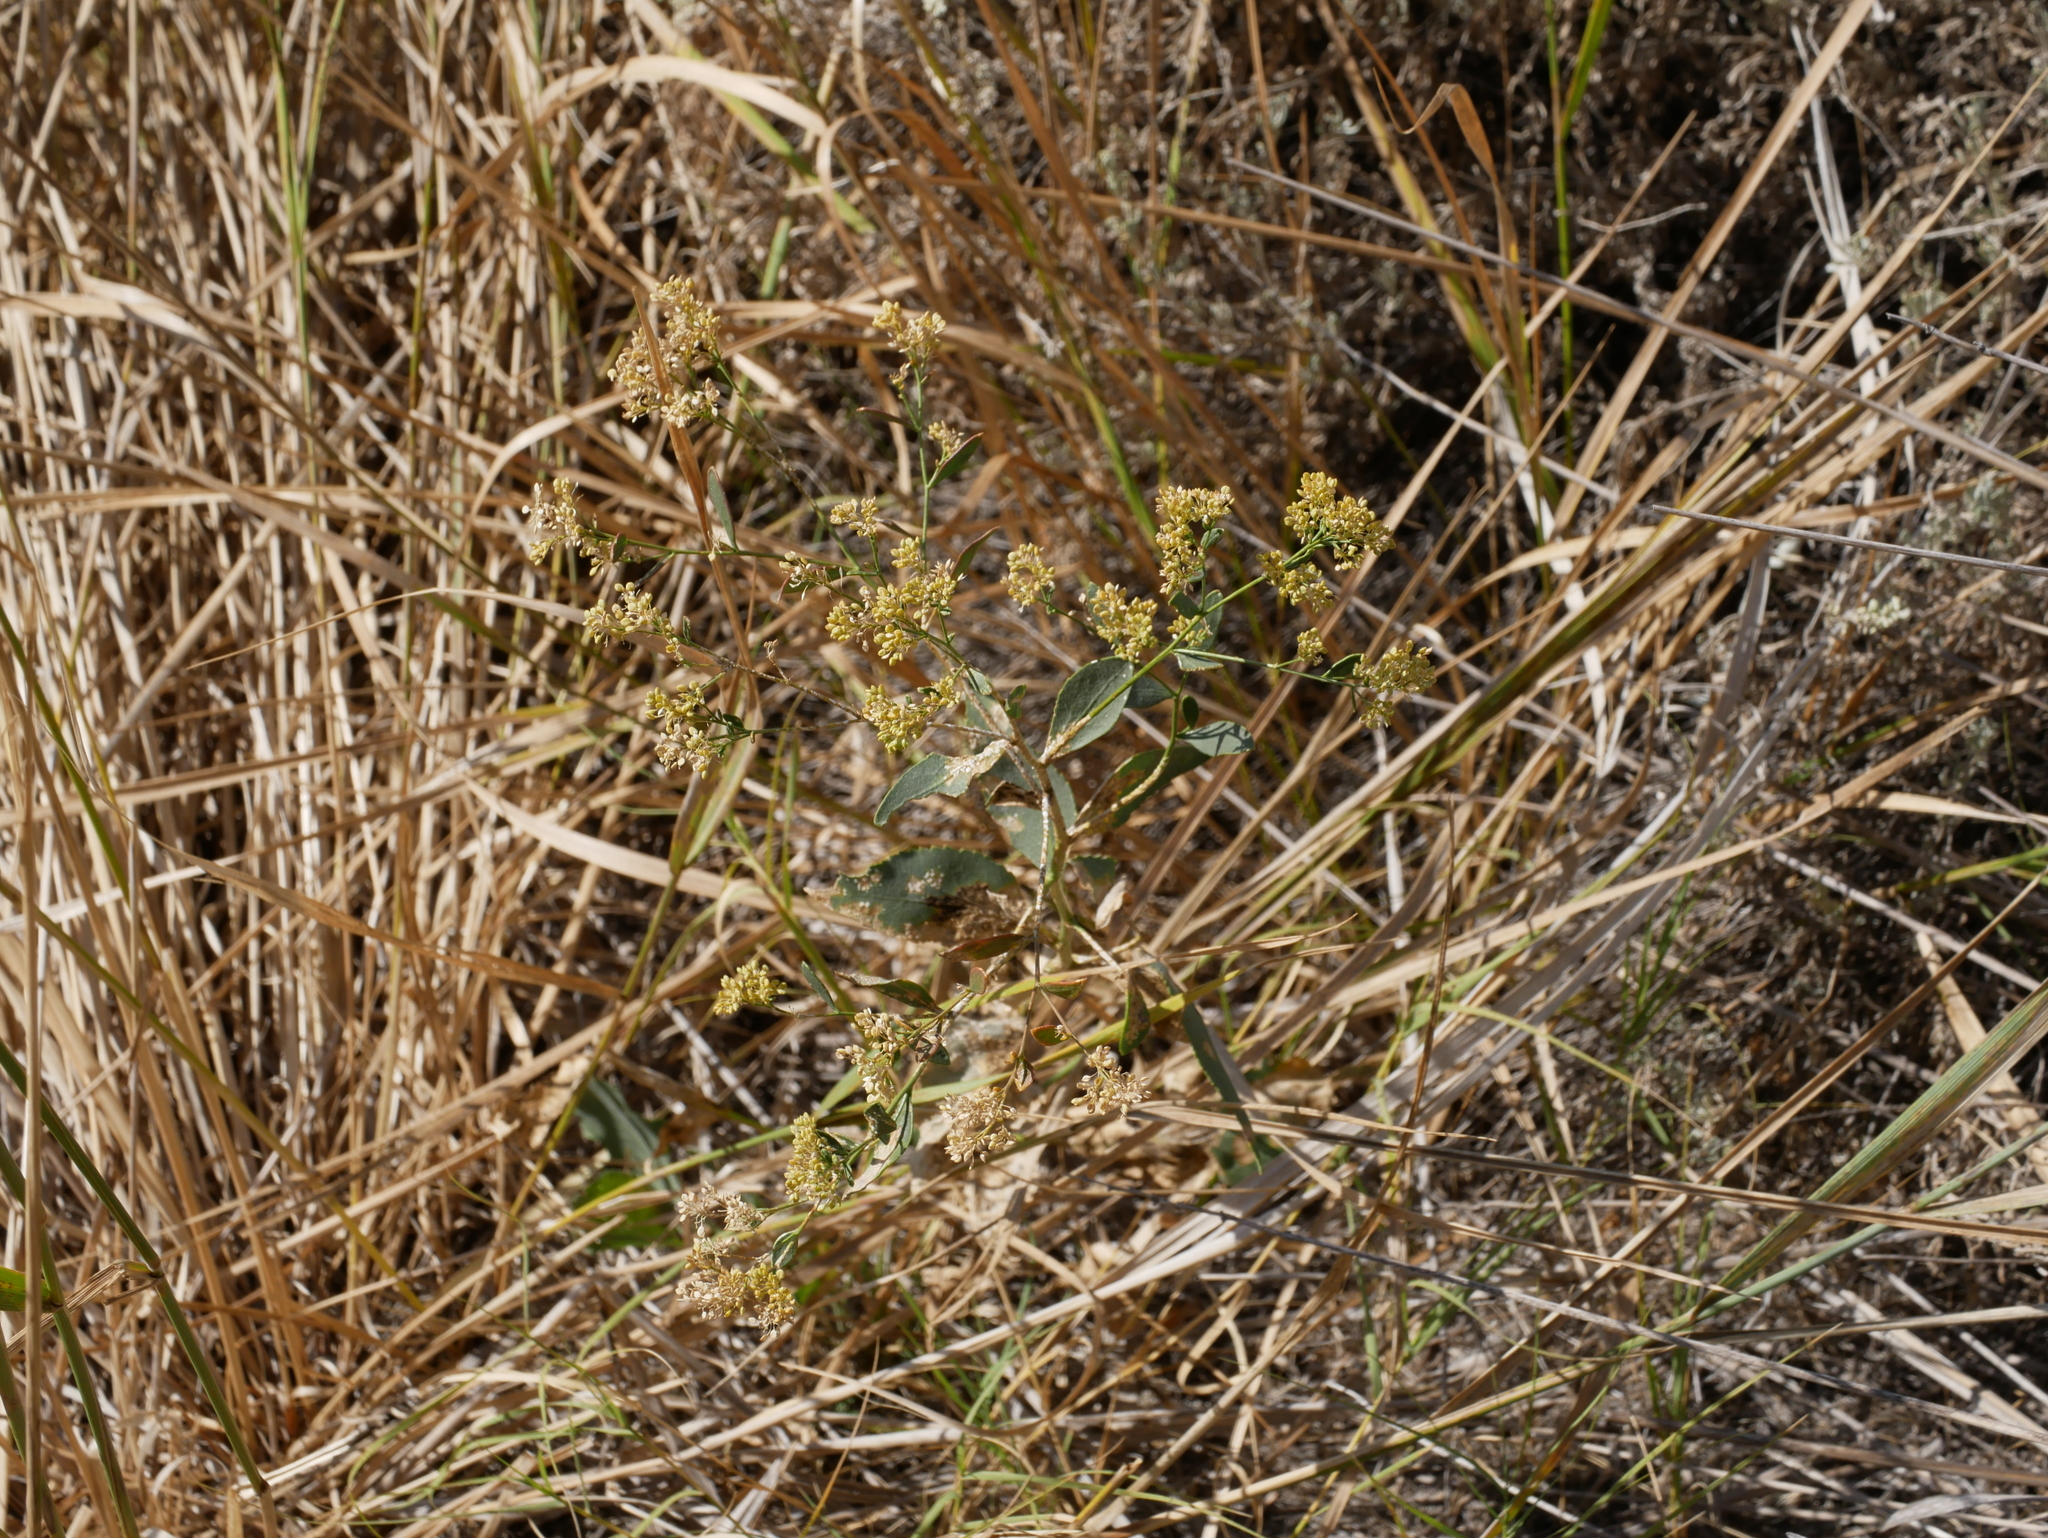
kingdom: Plantae
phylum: Tracheophyta
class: Magnoliopsida
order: Brassicales
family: Brassicaceae
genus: Lepidium
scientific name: Lepidium latifolium
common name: Dittander
